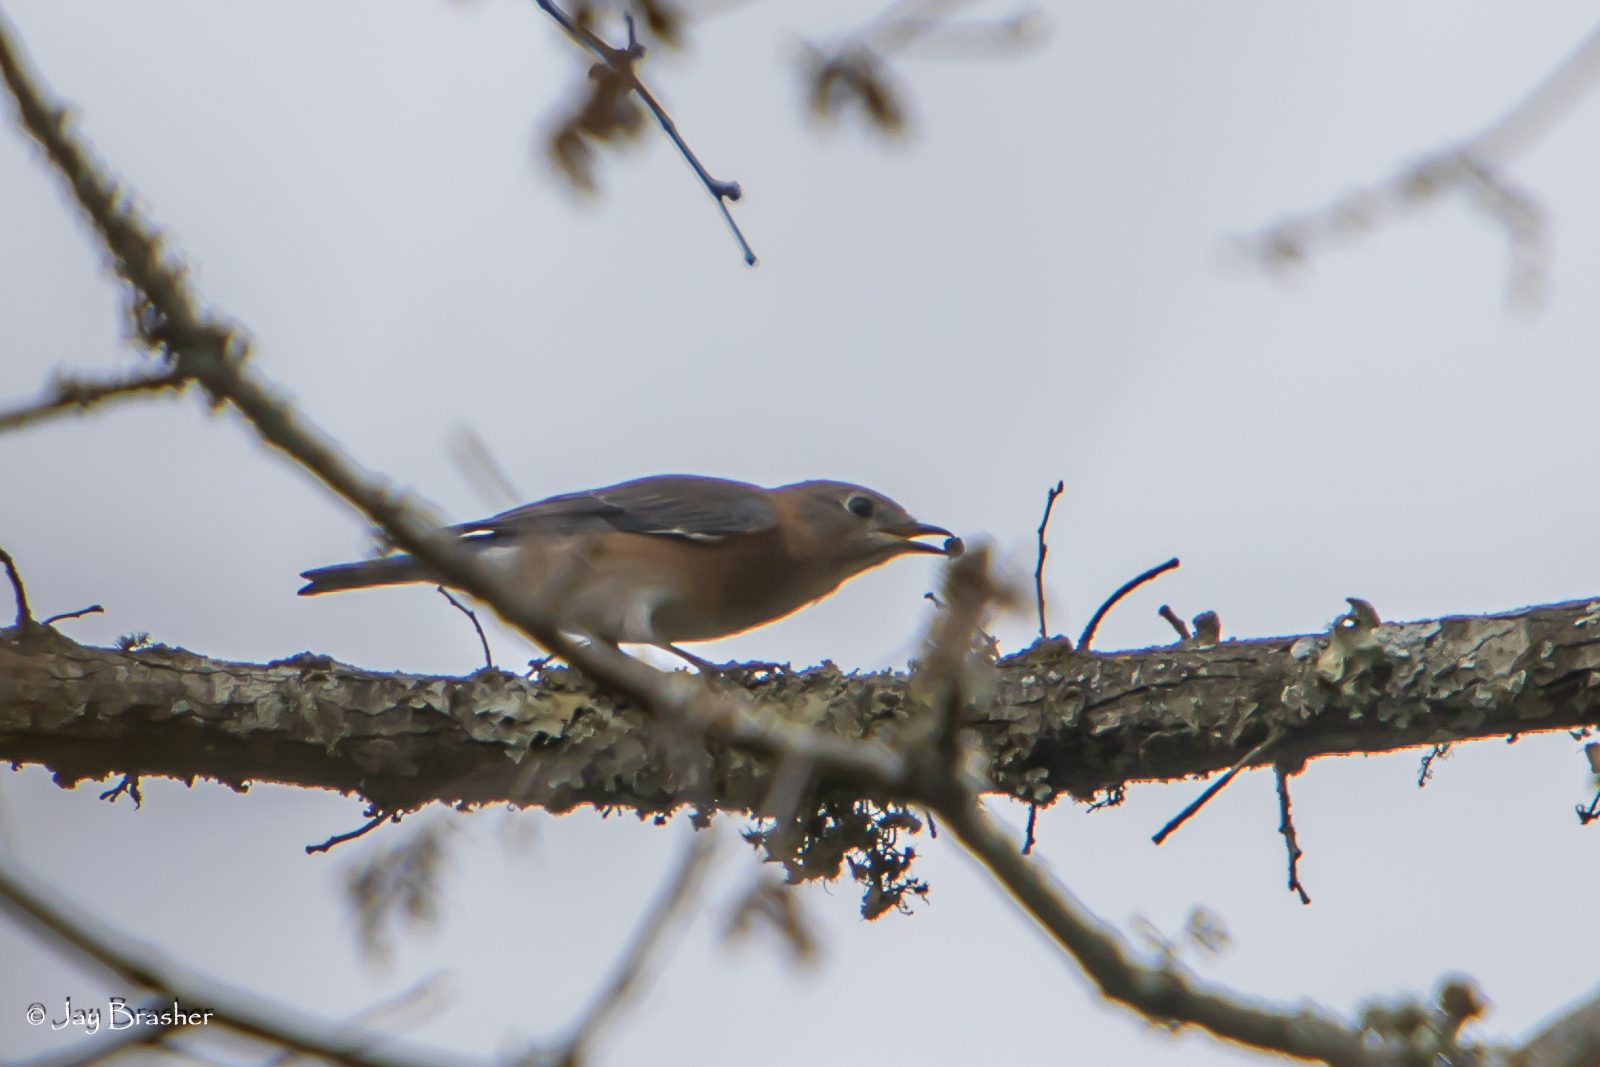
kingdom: Animalia
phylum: Chordata
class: Aves
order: Passeriformes
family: Turdidae
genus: Sialia
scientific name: Sialia sialis
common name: Eastern bluebird
